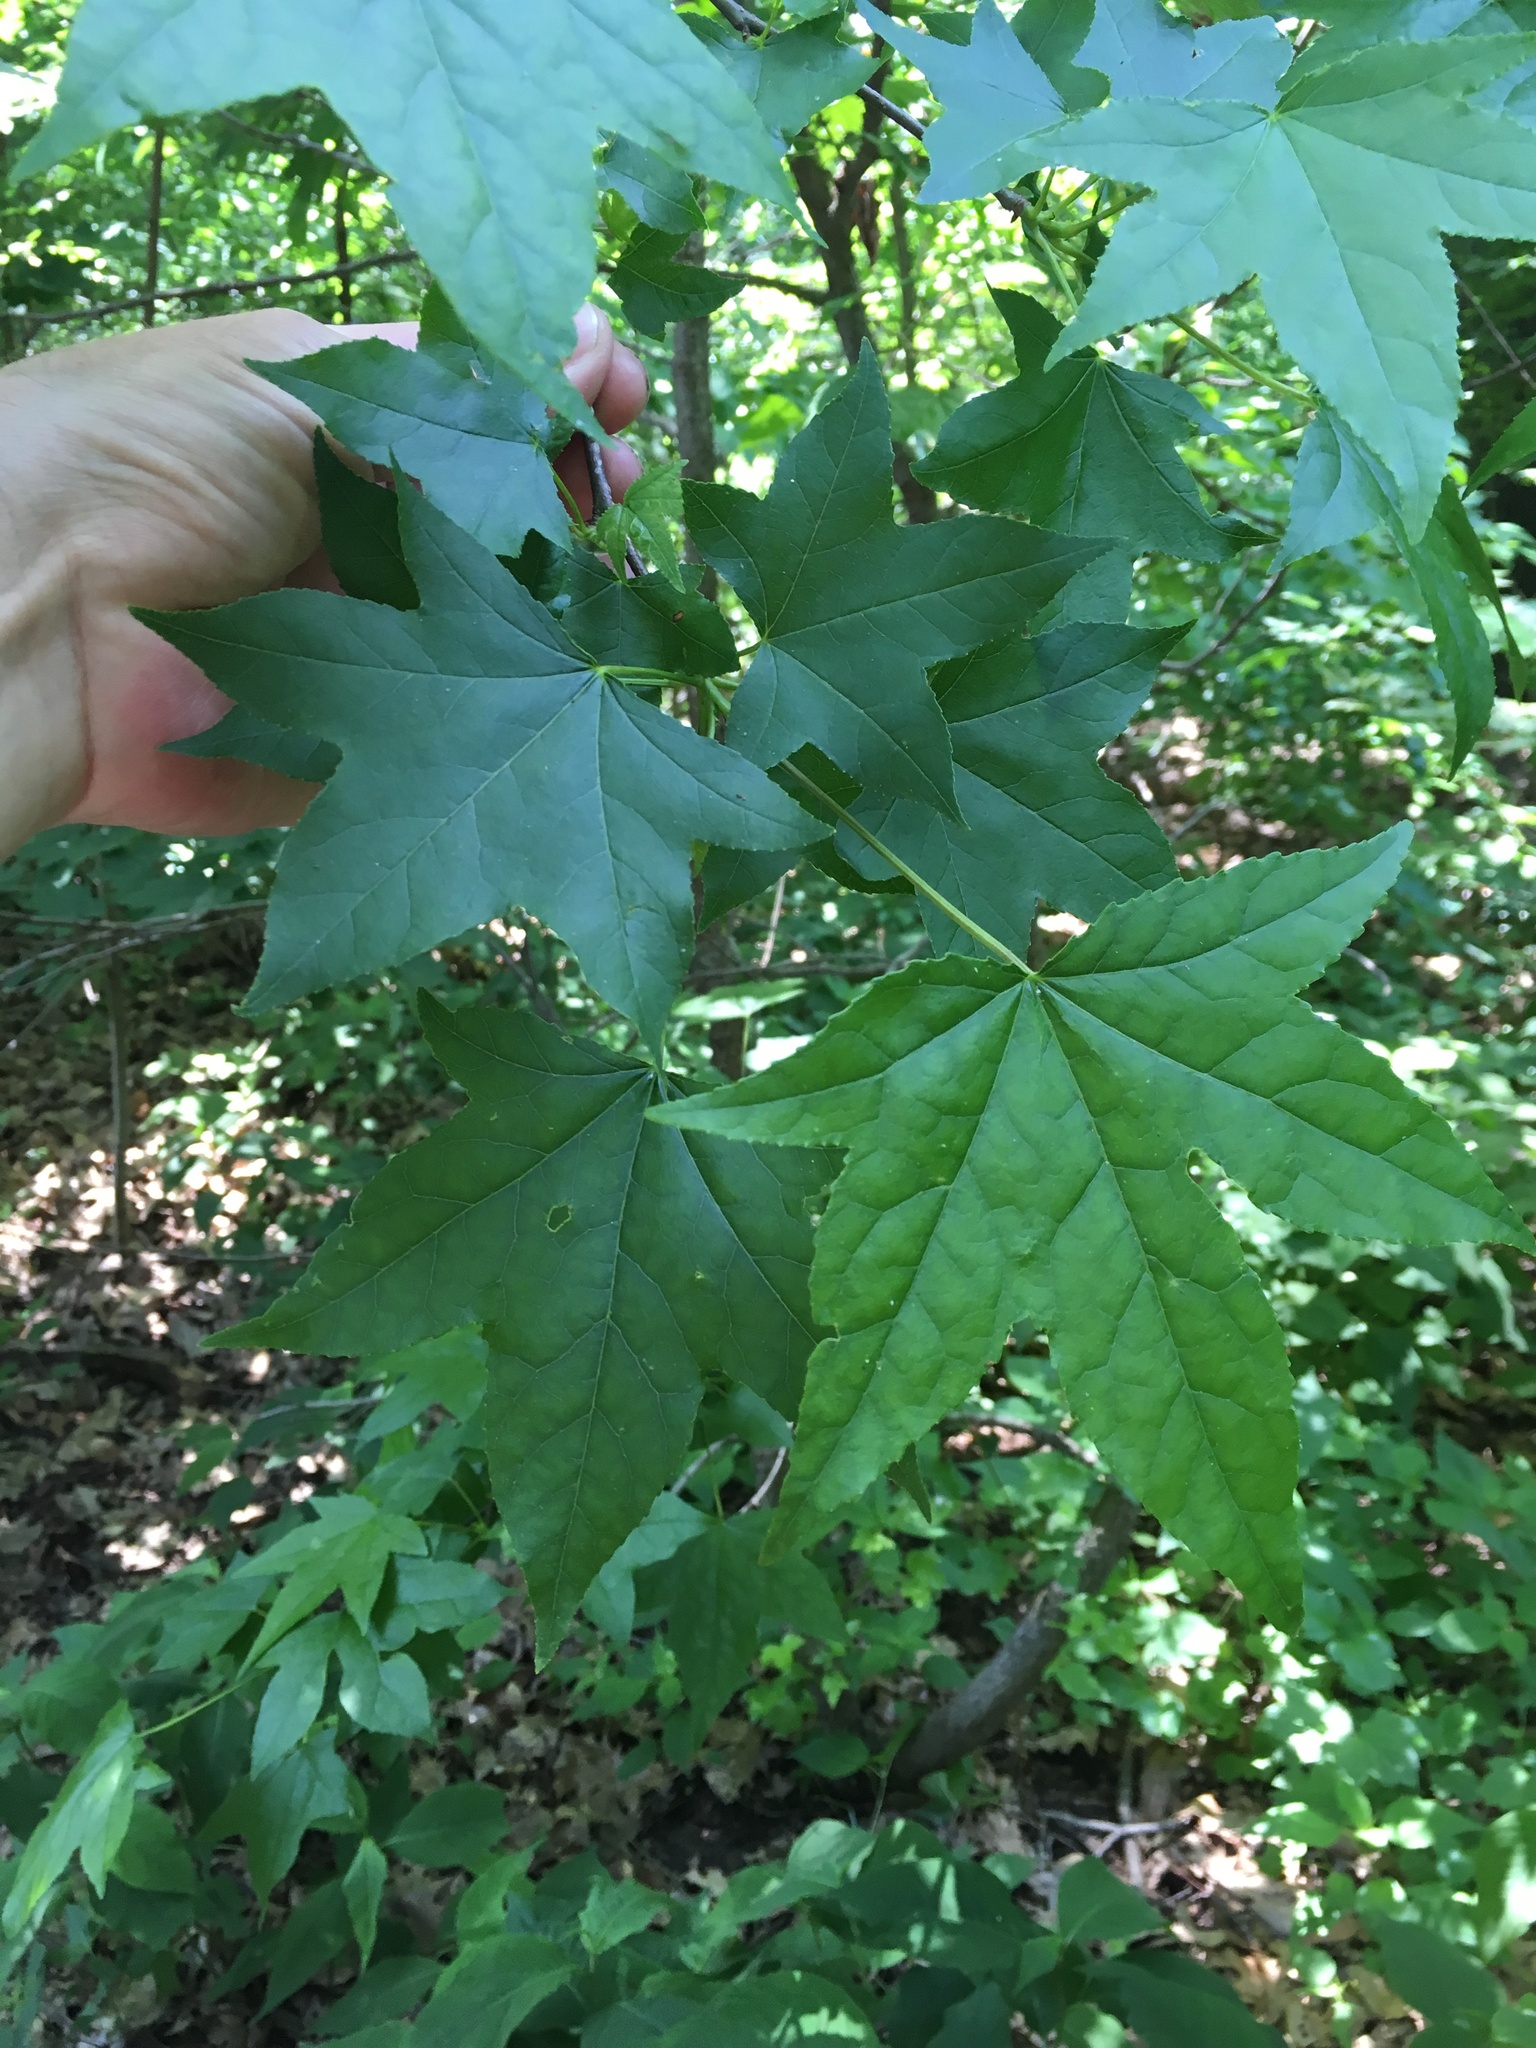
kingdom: Plantae
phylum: Tracheophyta
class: Magnoliopsida
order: Saxifragales
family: Altingiaceae
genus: Liquidambar
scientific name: Liquidambar styraciflua
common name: Sweet gum
